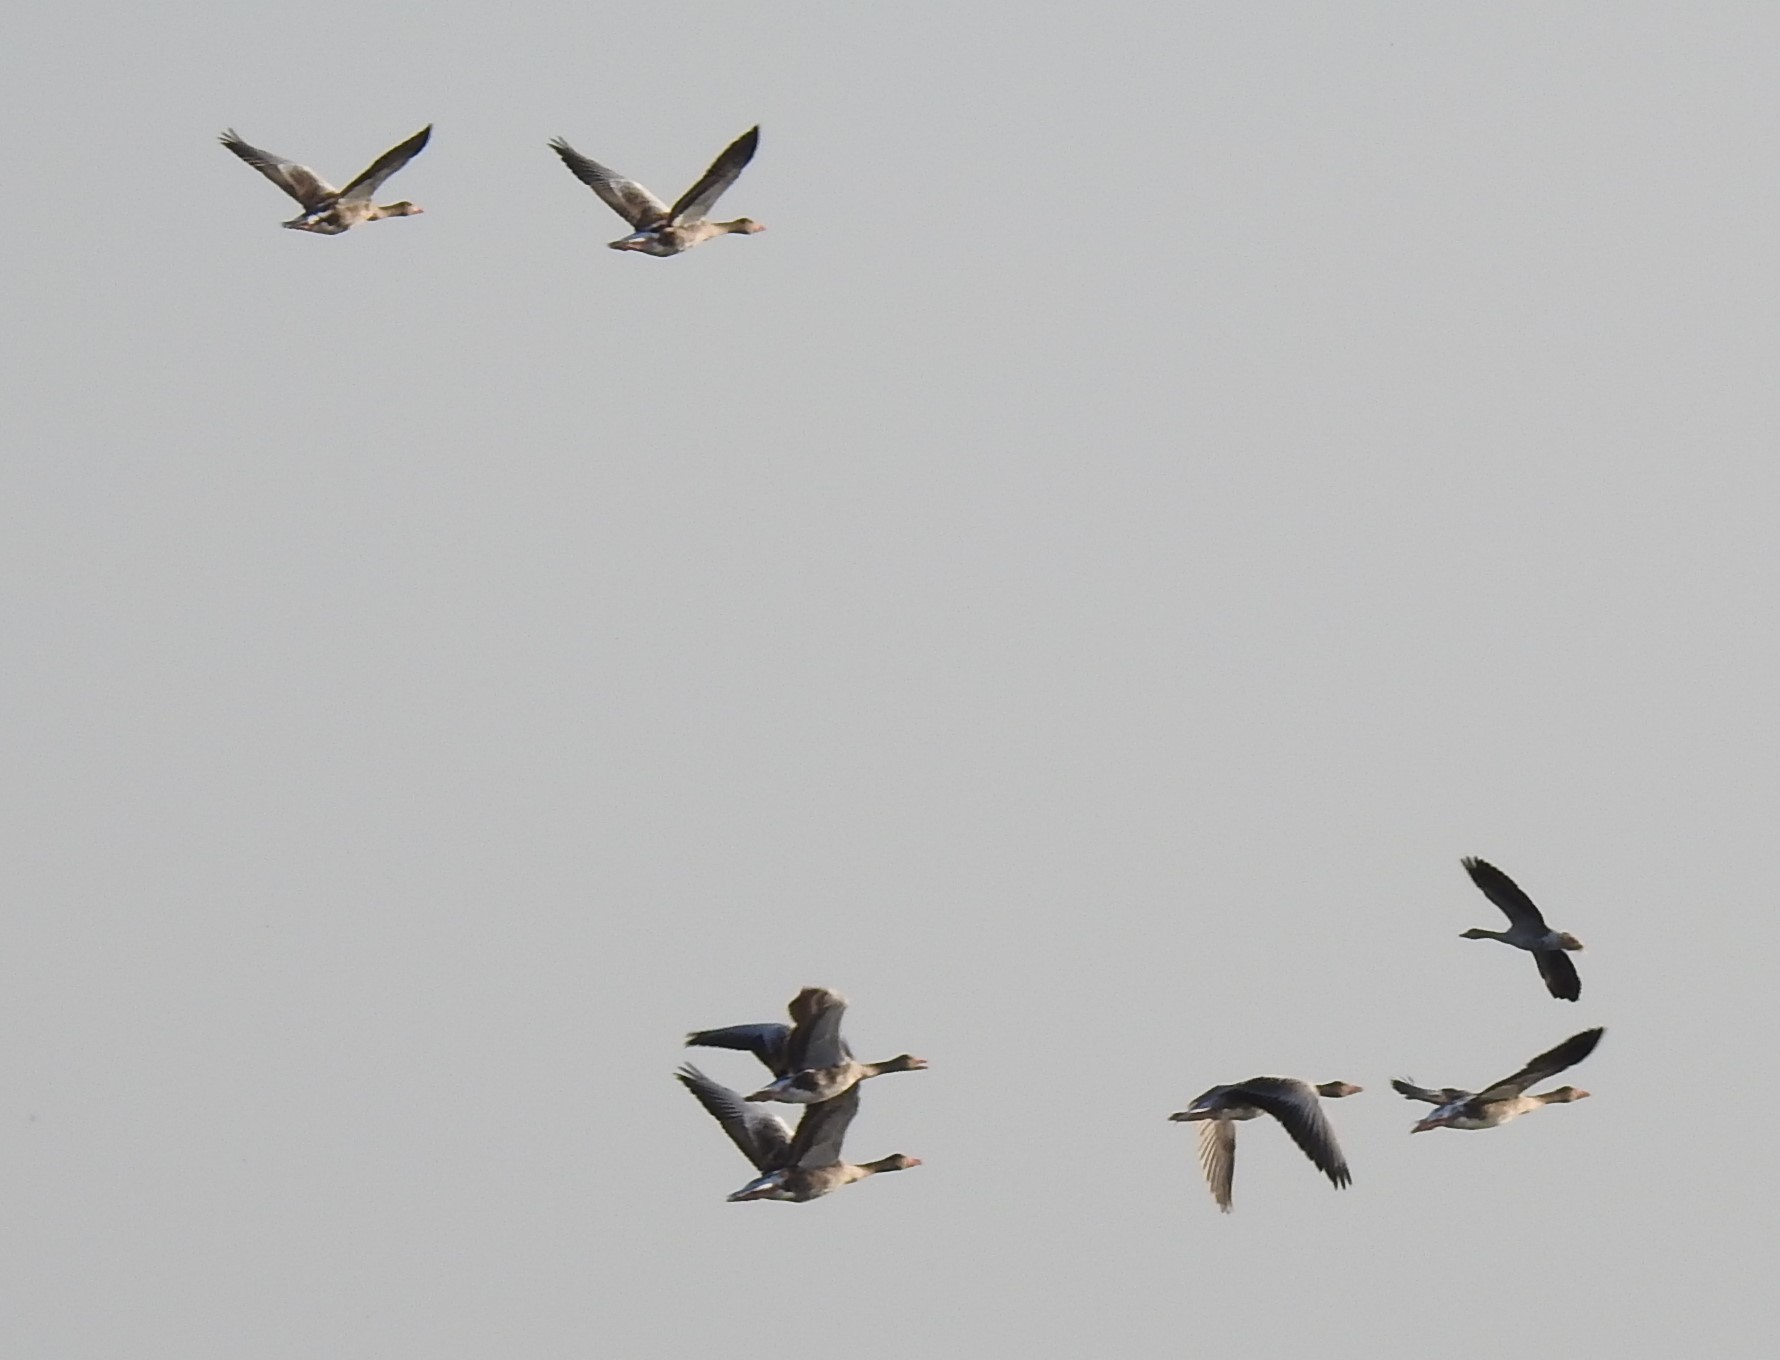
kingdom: Animalia
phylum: Chordata
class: Aves
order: Anseriformes
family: Anatidae
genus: Anser
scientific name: Anser anser
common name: Greylag goose
